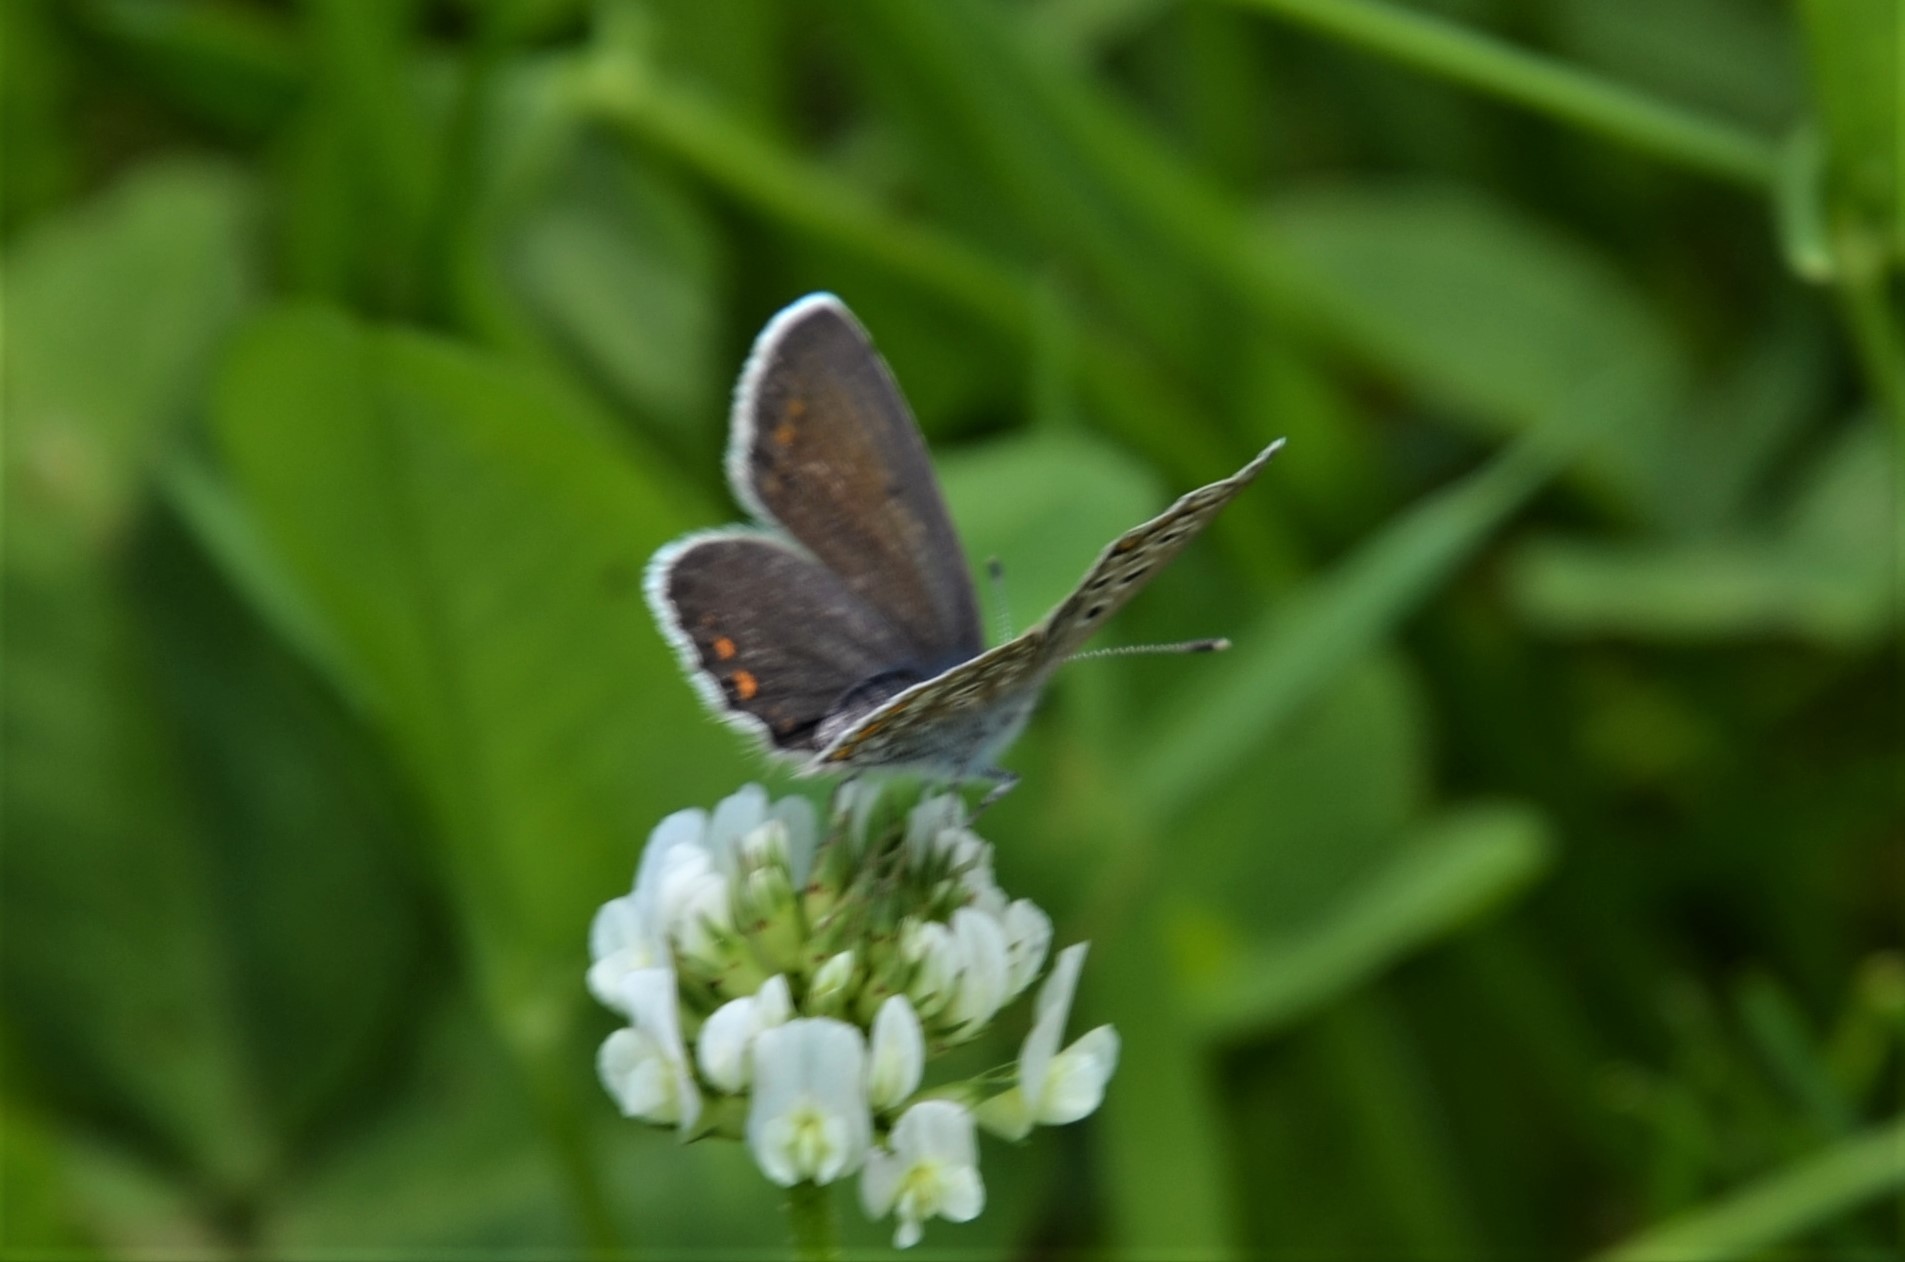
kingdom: Animalia
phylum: Arthropoda
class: Insecta
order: Lepidoptera
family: Lycaenidae
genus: Polyommatus
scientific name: Polyommatus icarus
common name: Common blue
